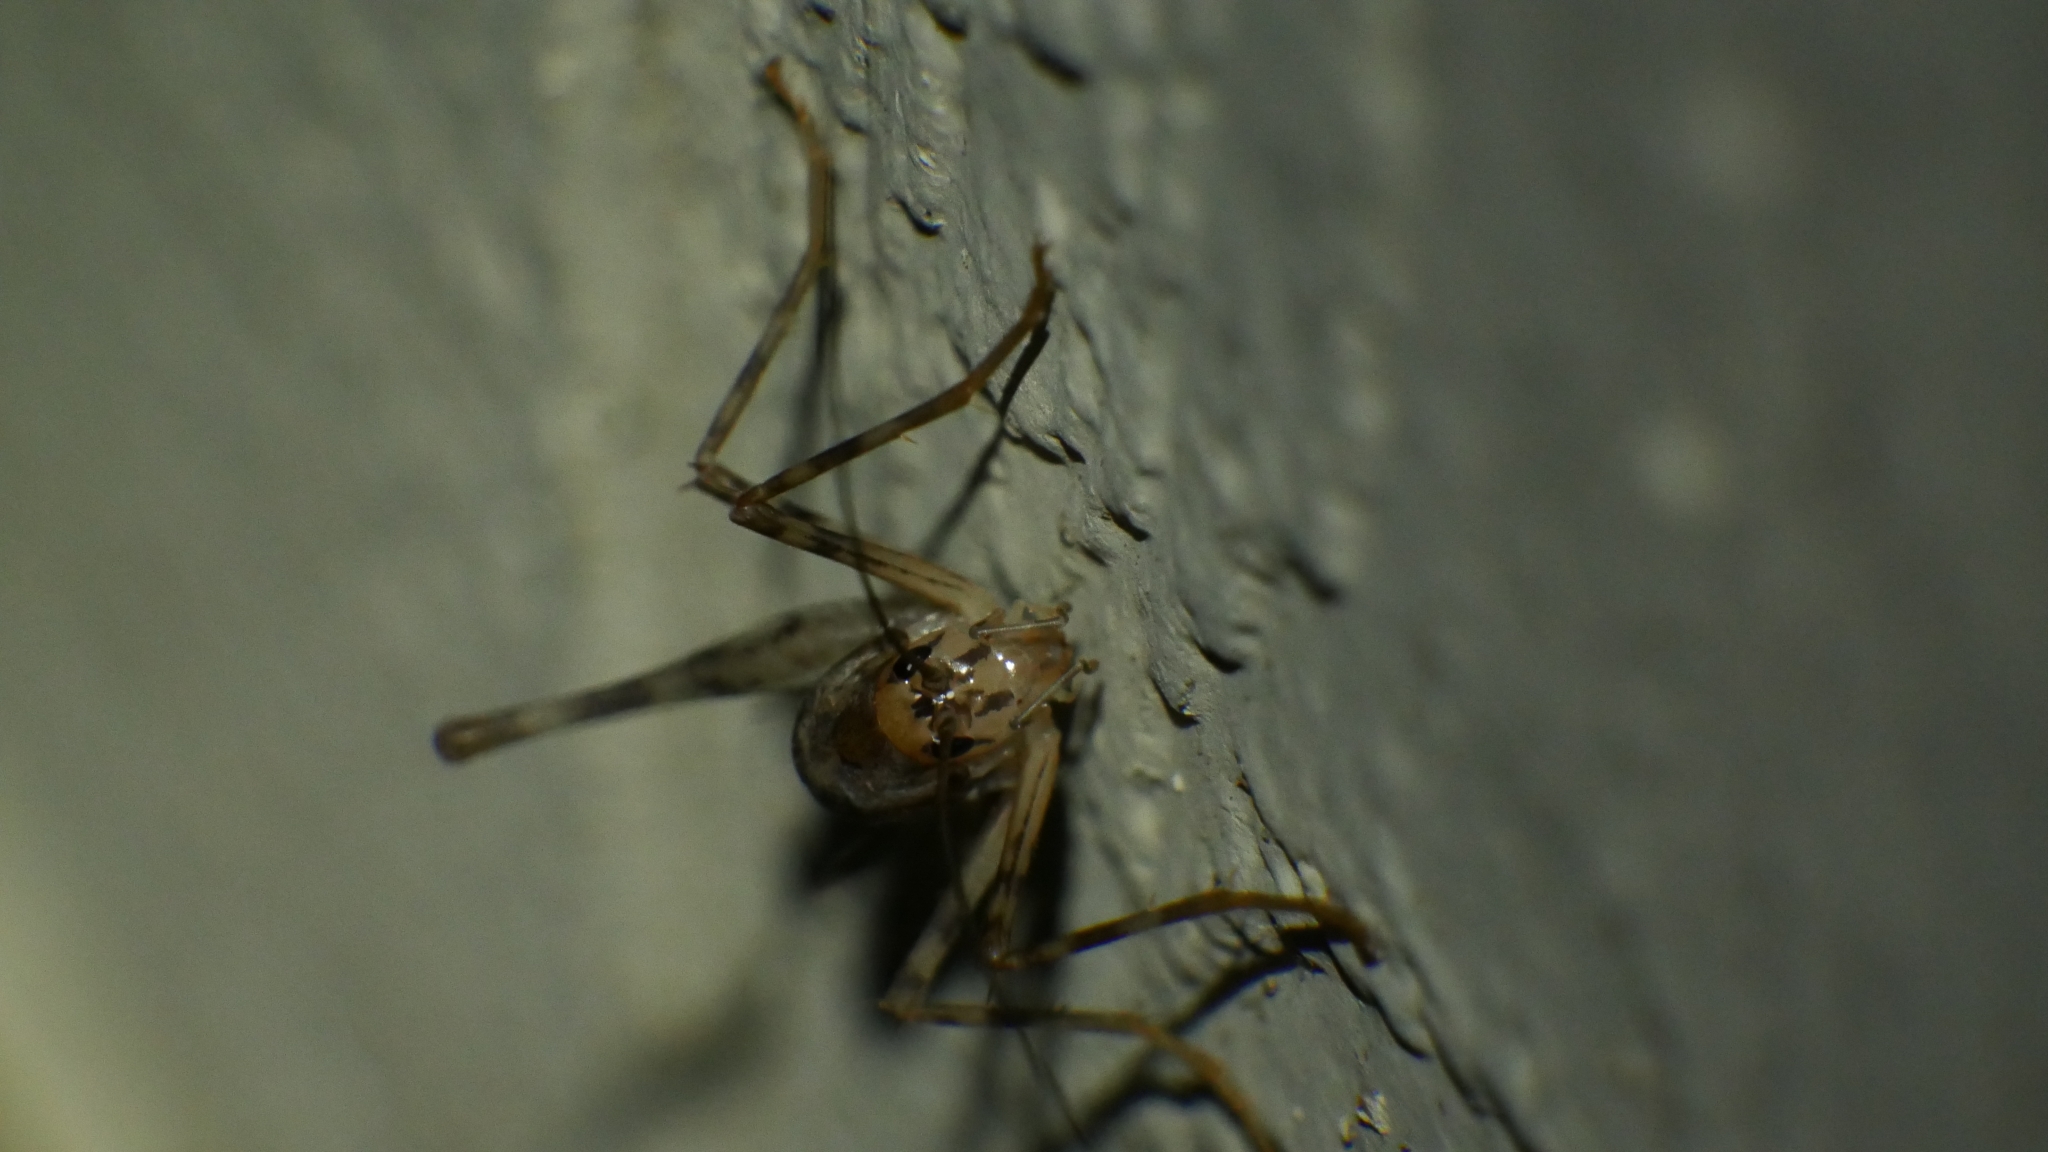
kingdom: Animalia
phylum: Arthropoda
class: Insecta
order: Orthoptera
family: Rhaphidophoridae
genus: Tachycines
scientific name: Tachycines asynamorus
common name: Greenhouse camel cricket
